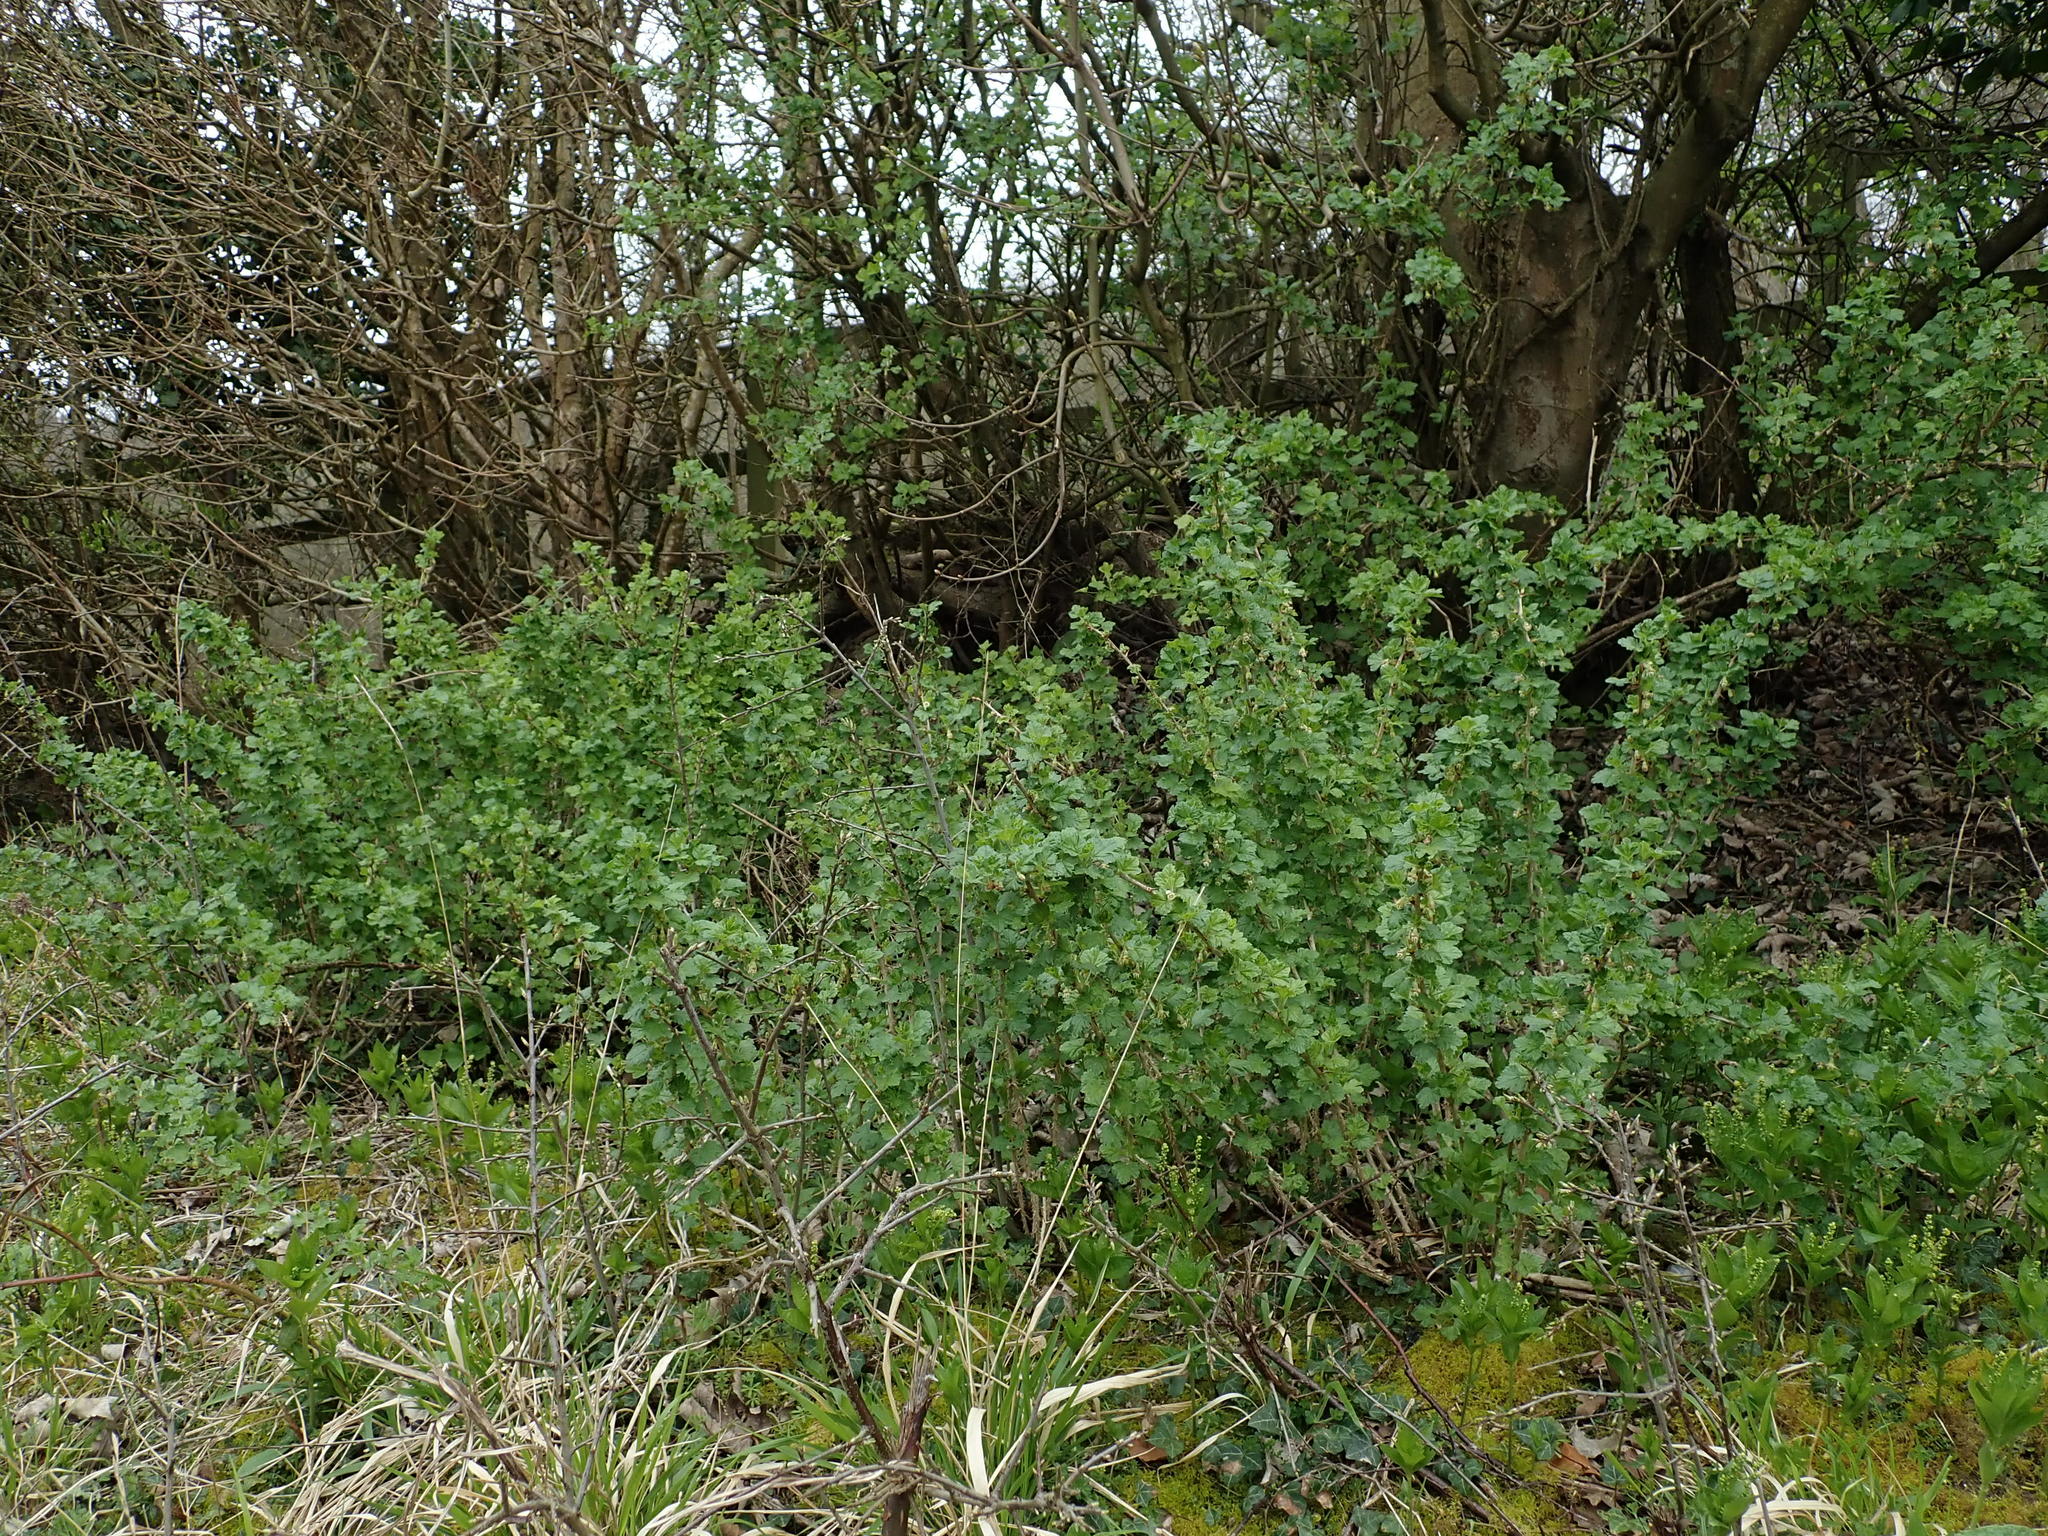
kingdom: Plantae
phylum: Tracheophyta
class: Magnoliopsida
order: Saxifragales
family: Grossulariaceae
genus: Ribes
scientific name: Ribes uva-crispa
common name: Gooseberry
